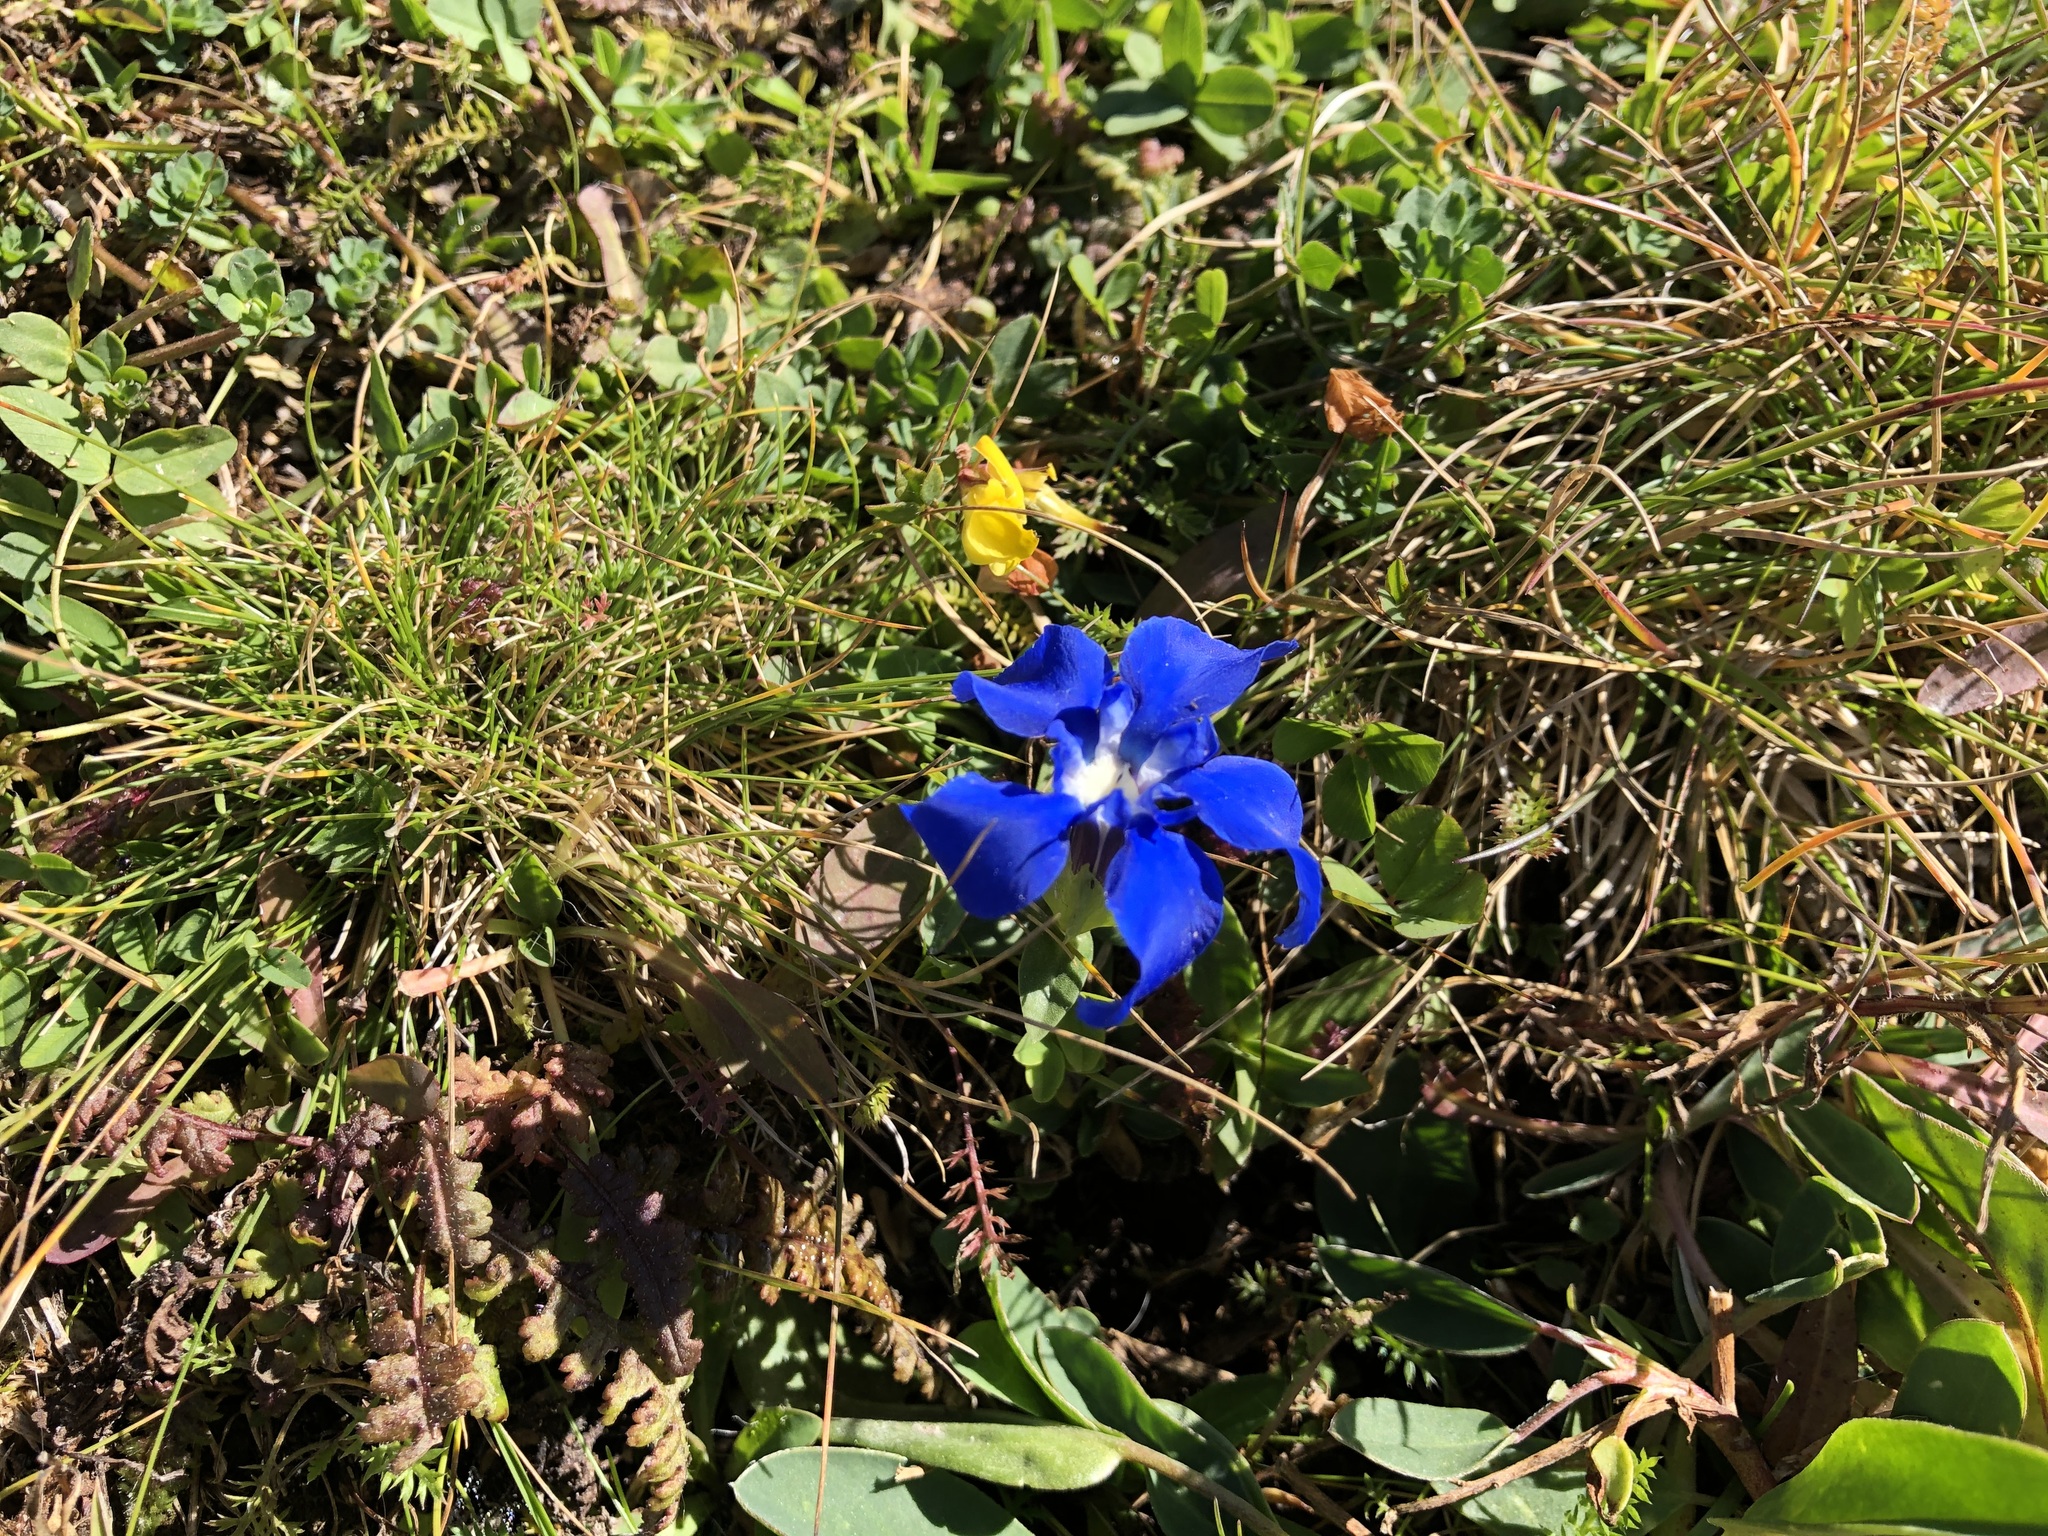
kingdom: Plantae
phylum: Tracheophyta
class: Magnoliopsida
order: Gentianales
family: Gentianaceae
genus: Gentiana
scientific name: Gentiana verna
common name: Spring gentian
